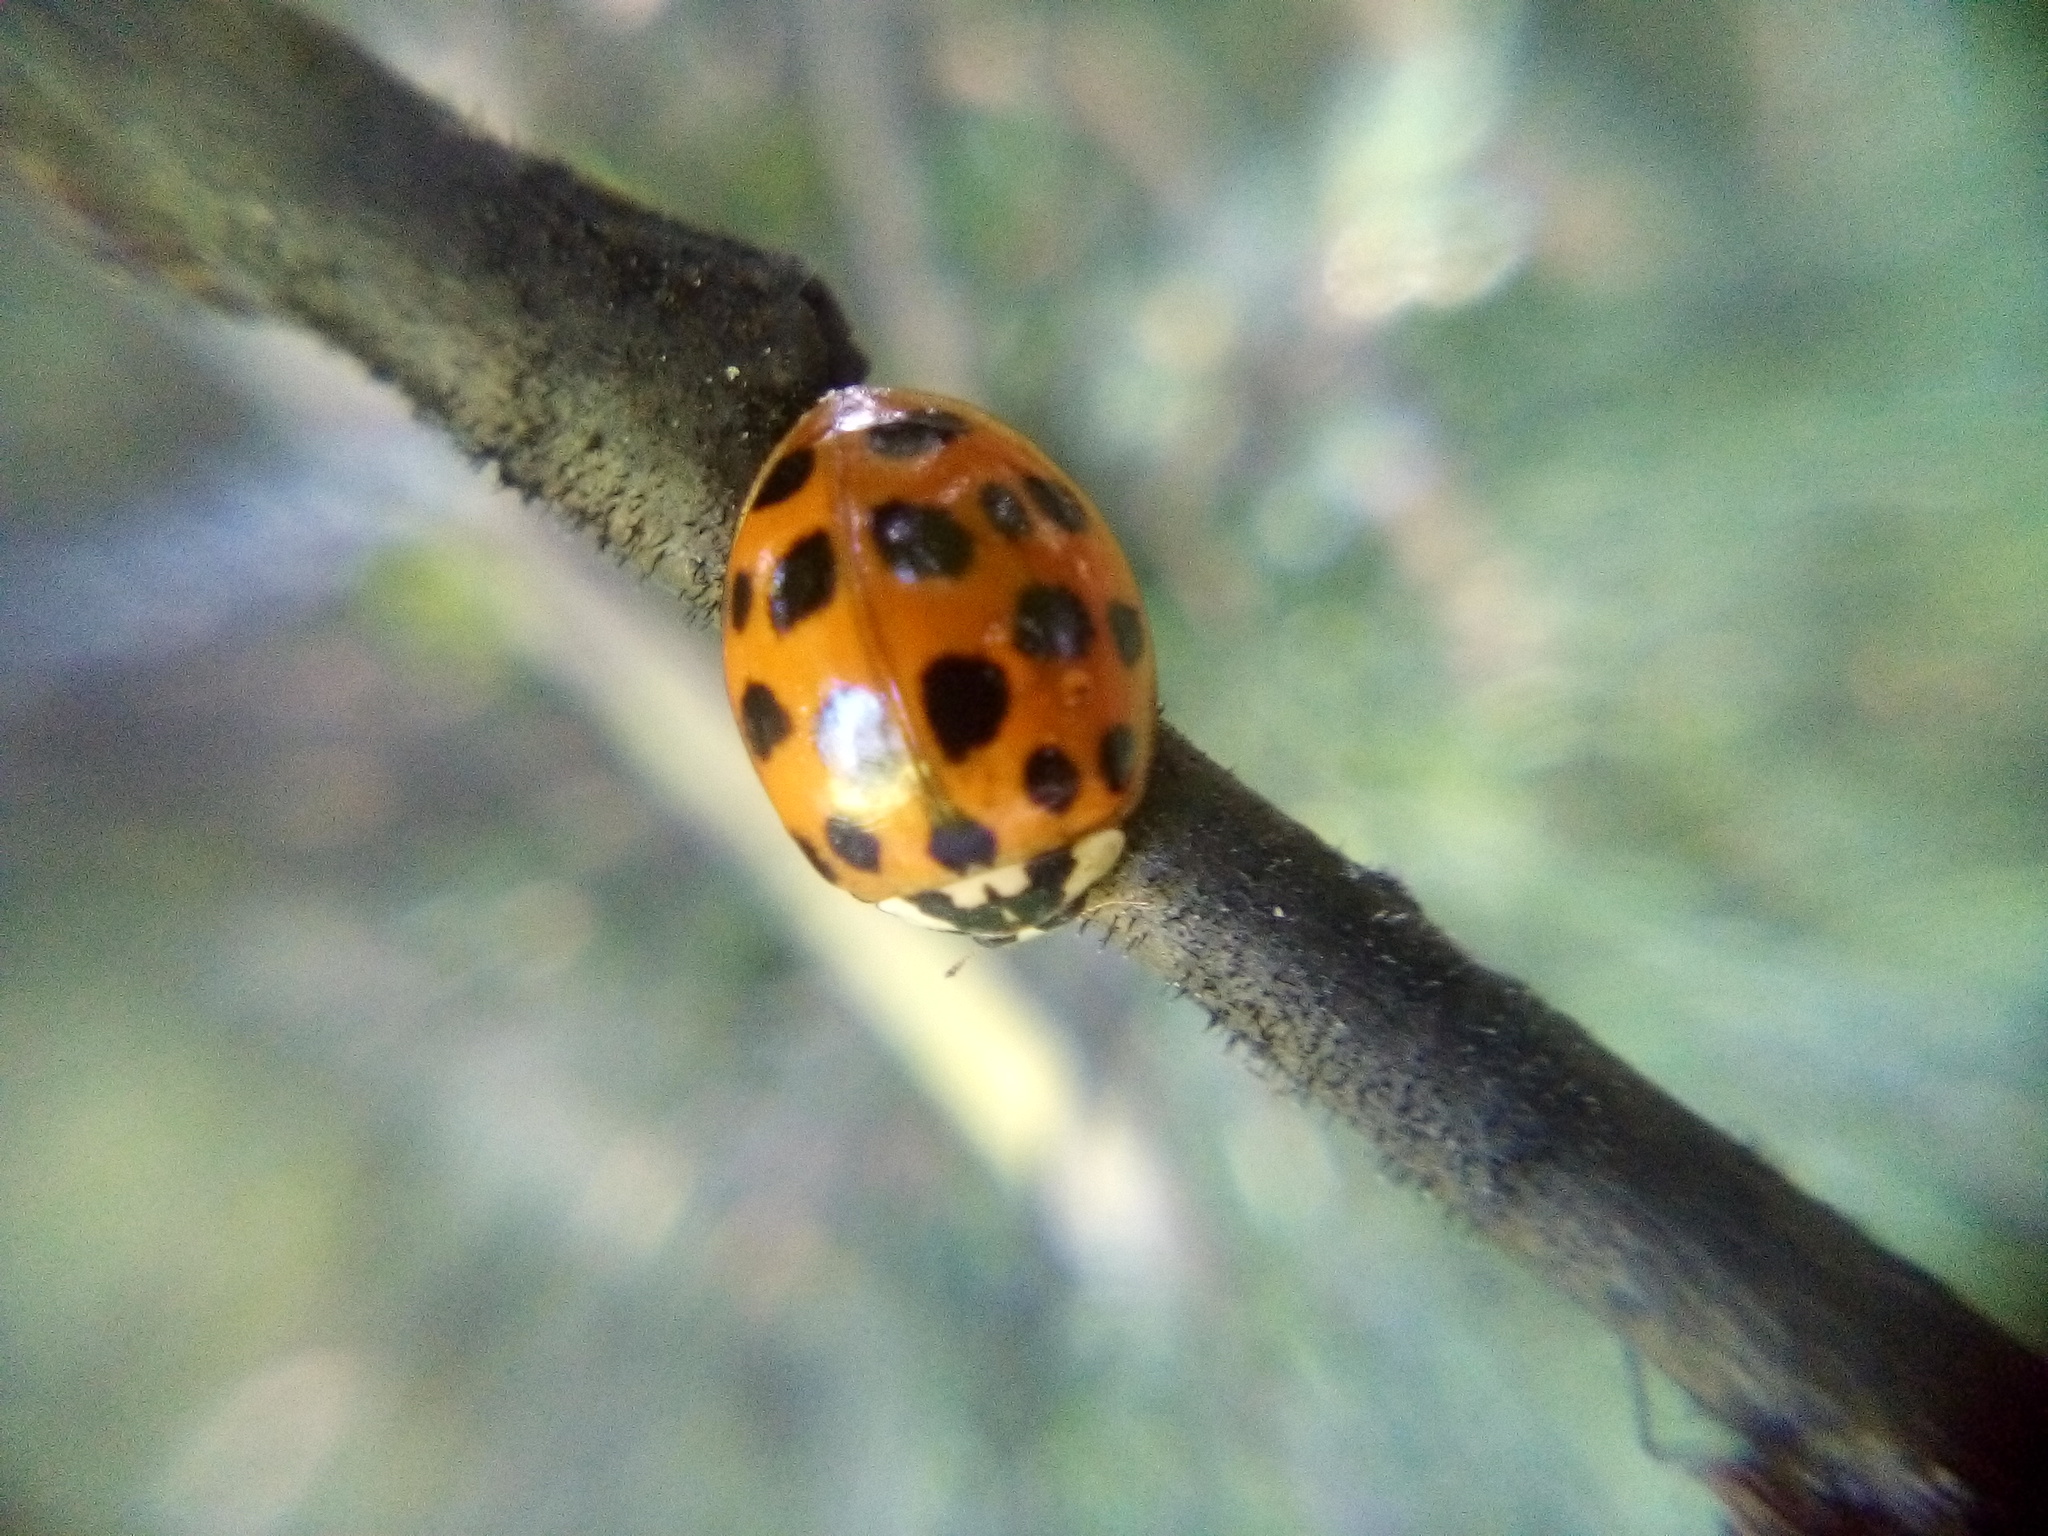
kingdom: Animalia
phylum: Arthropoda
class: Insecta
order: Coleoptera
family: Coccinellidae
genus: Harmonia
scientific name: Harmonia axyridis
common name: Harlequin ladybird
